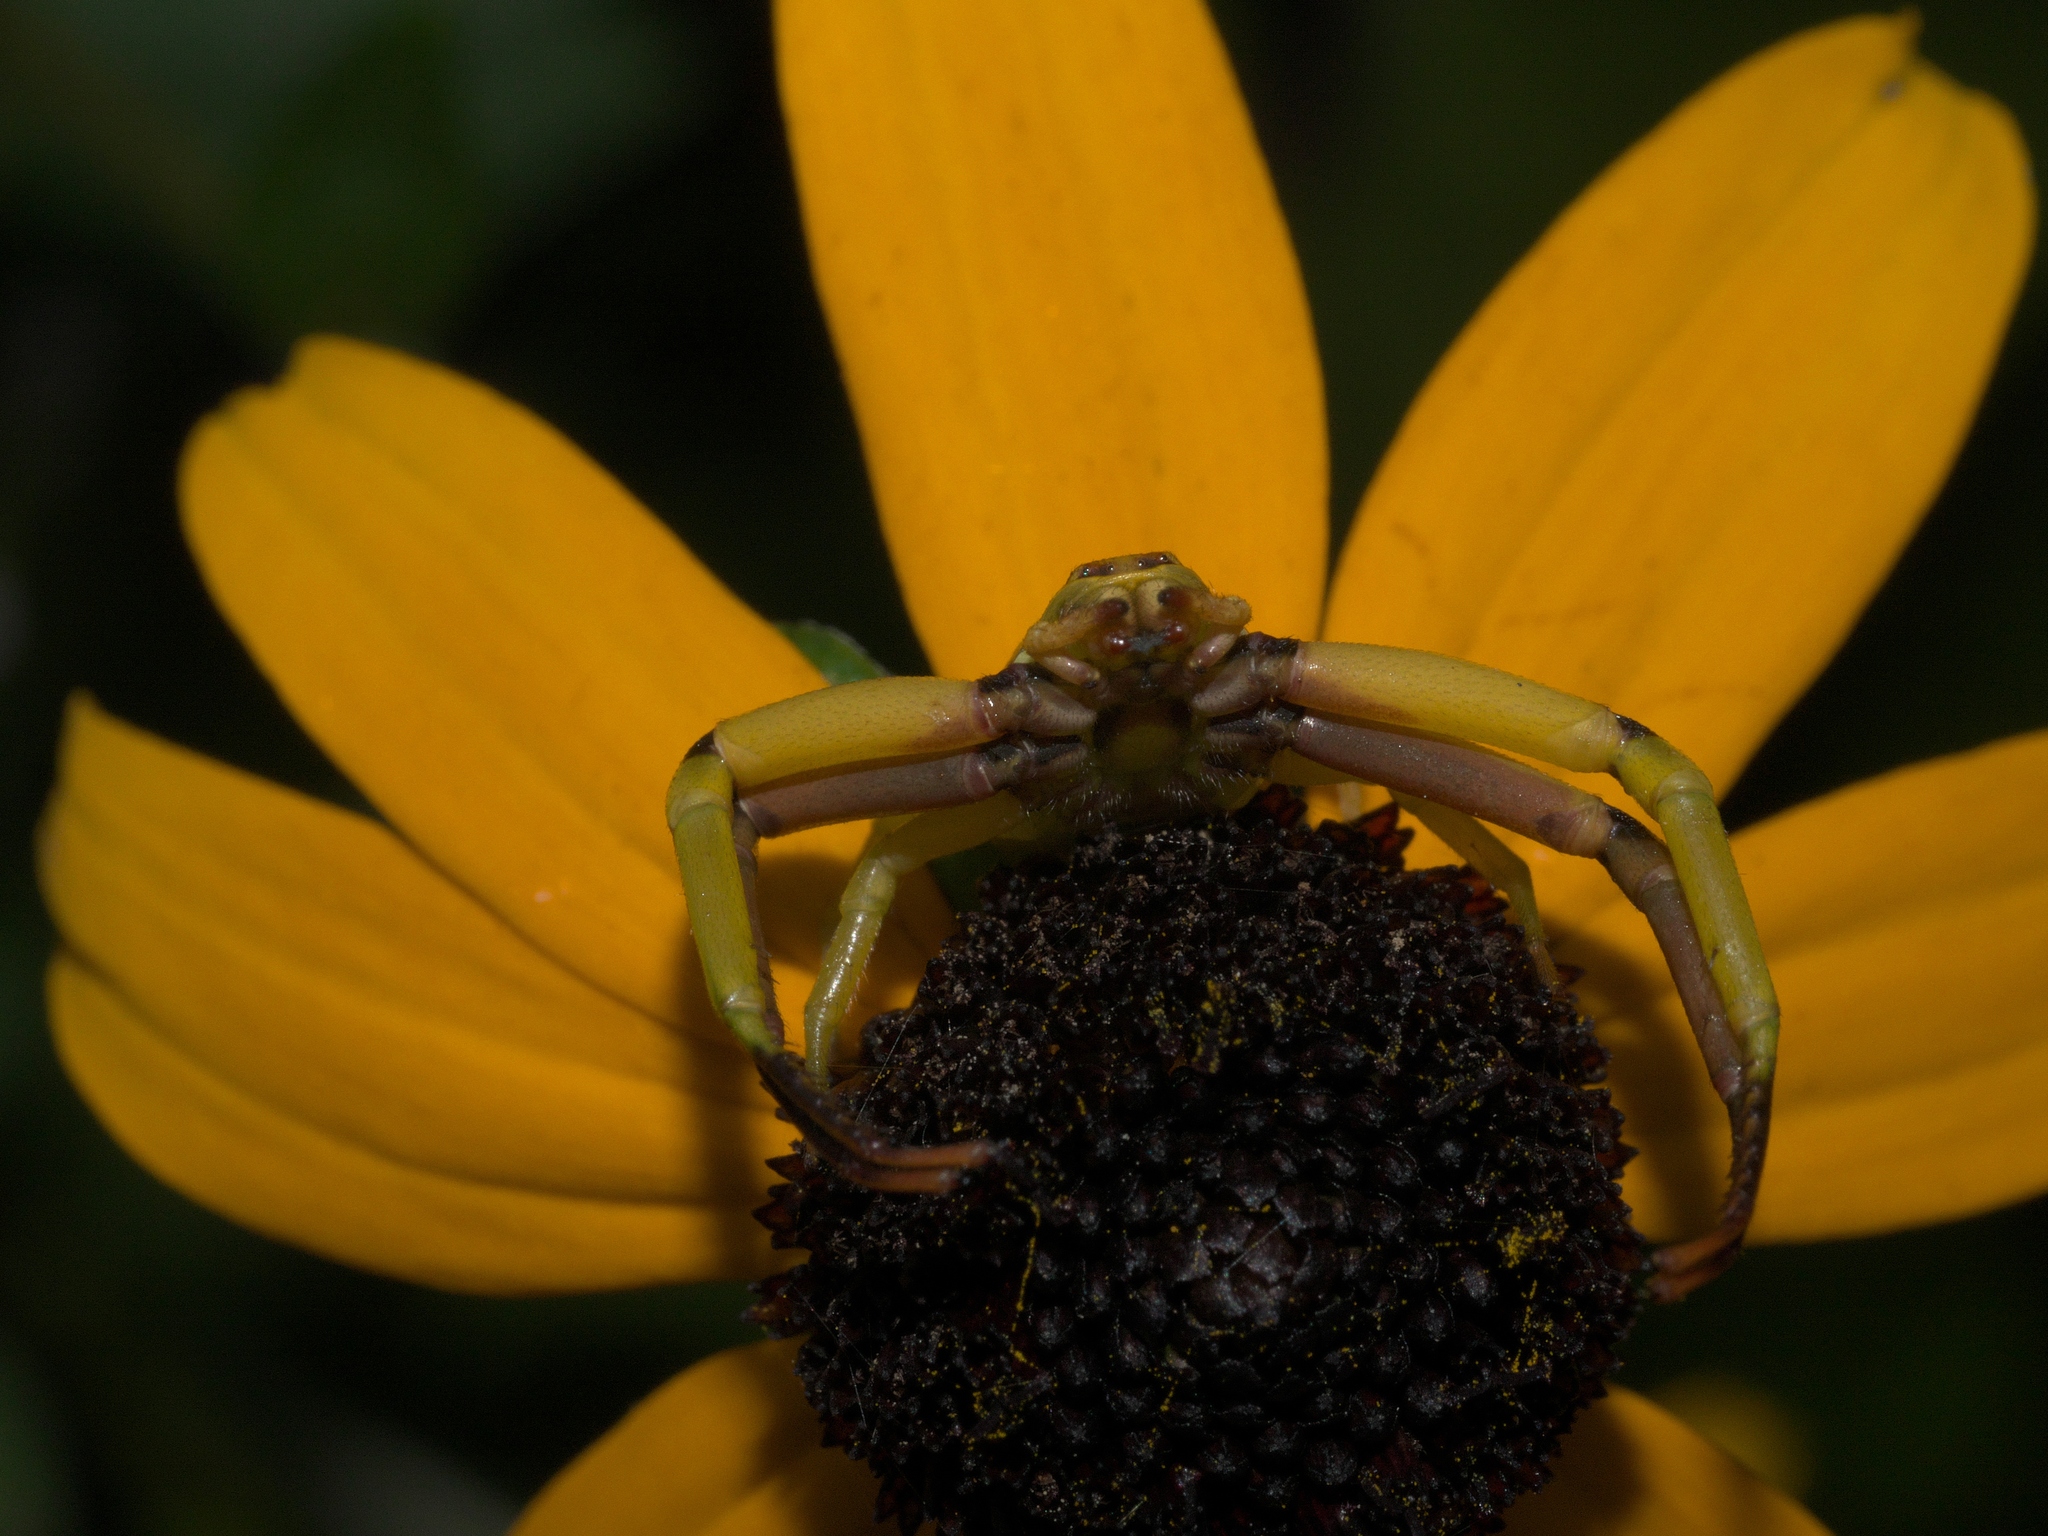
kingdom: Animalia
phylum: Arthropoda
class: Arachnida
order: Araneae
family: Thomisidae
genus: Misumenoides
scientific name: Misumenoides formosipes
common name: White-banded crab spider
